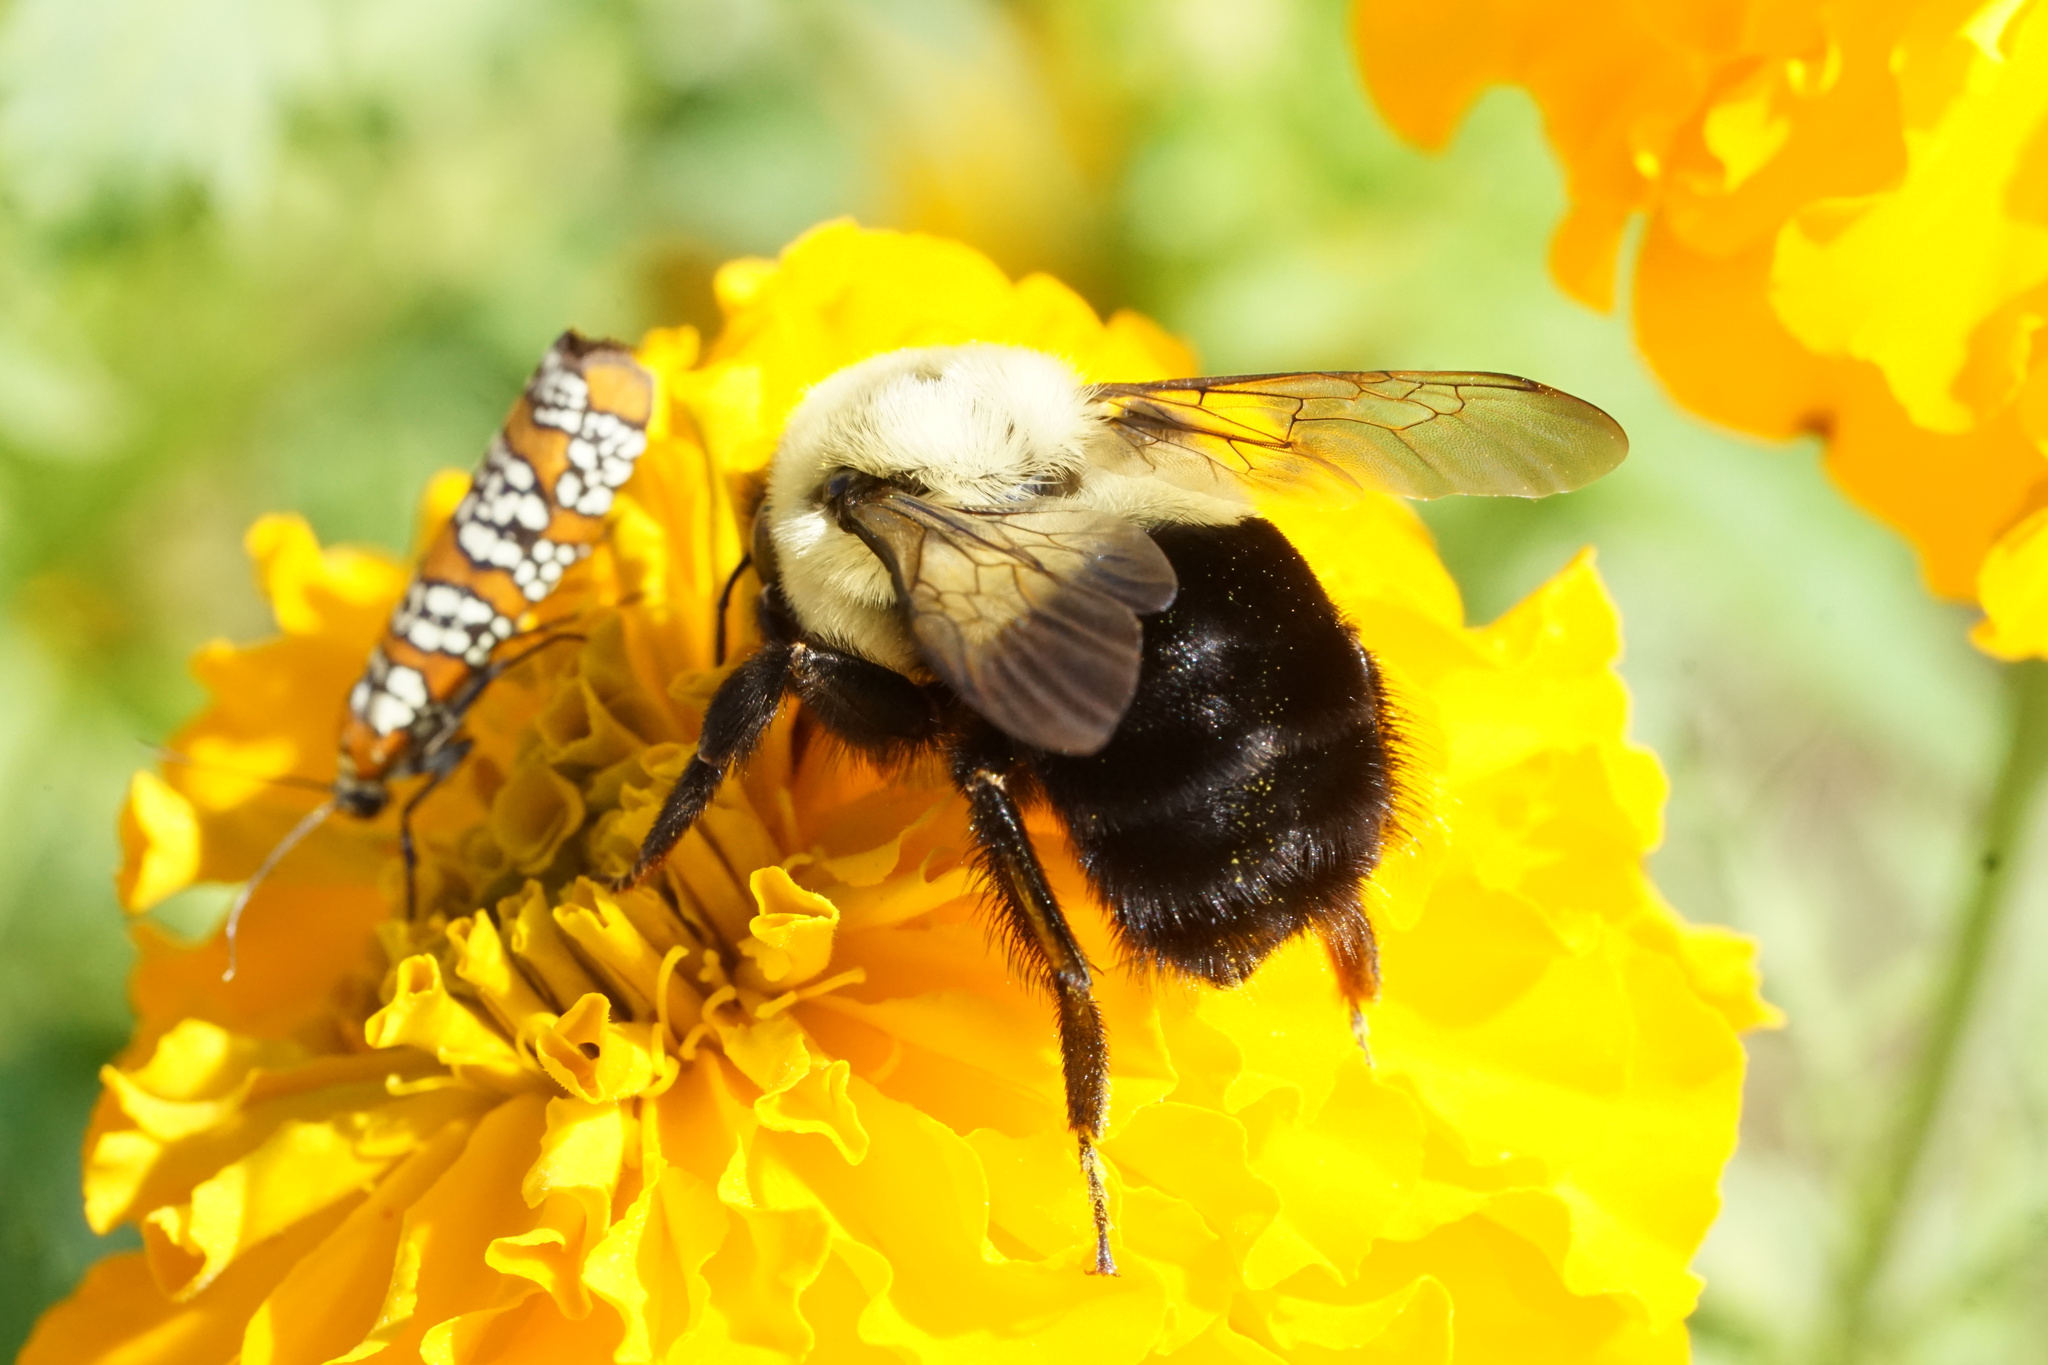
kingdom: Animalia
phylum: Arthropoda
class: Insecta
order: Hymenoptera
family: Apidae
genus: Bombus
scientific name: Bombus impatiens
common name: Common eastern bumble bee
